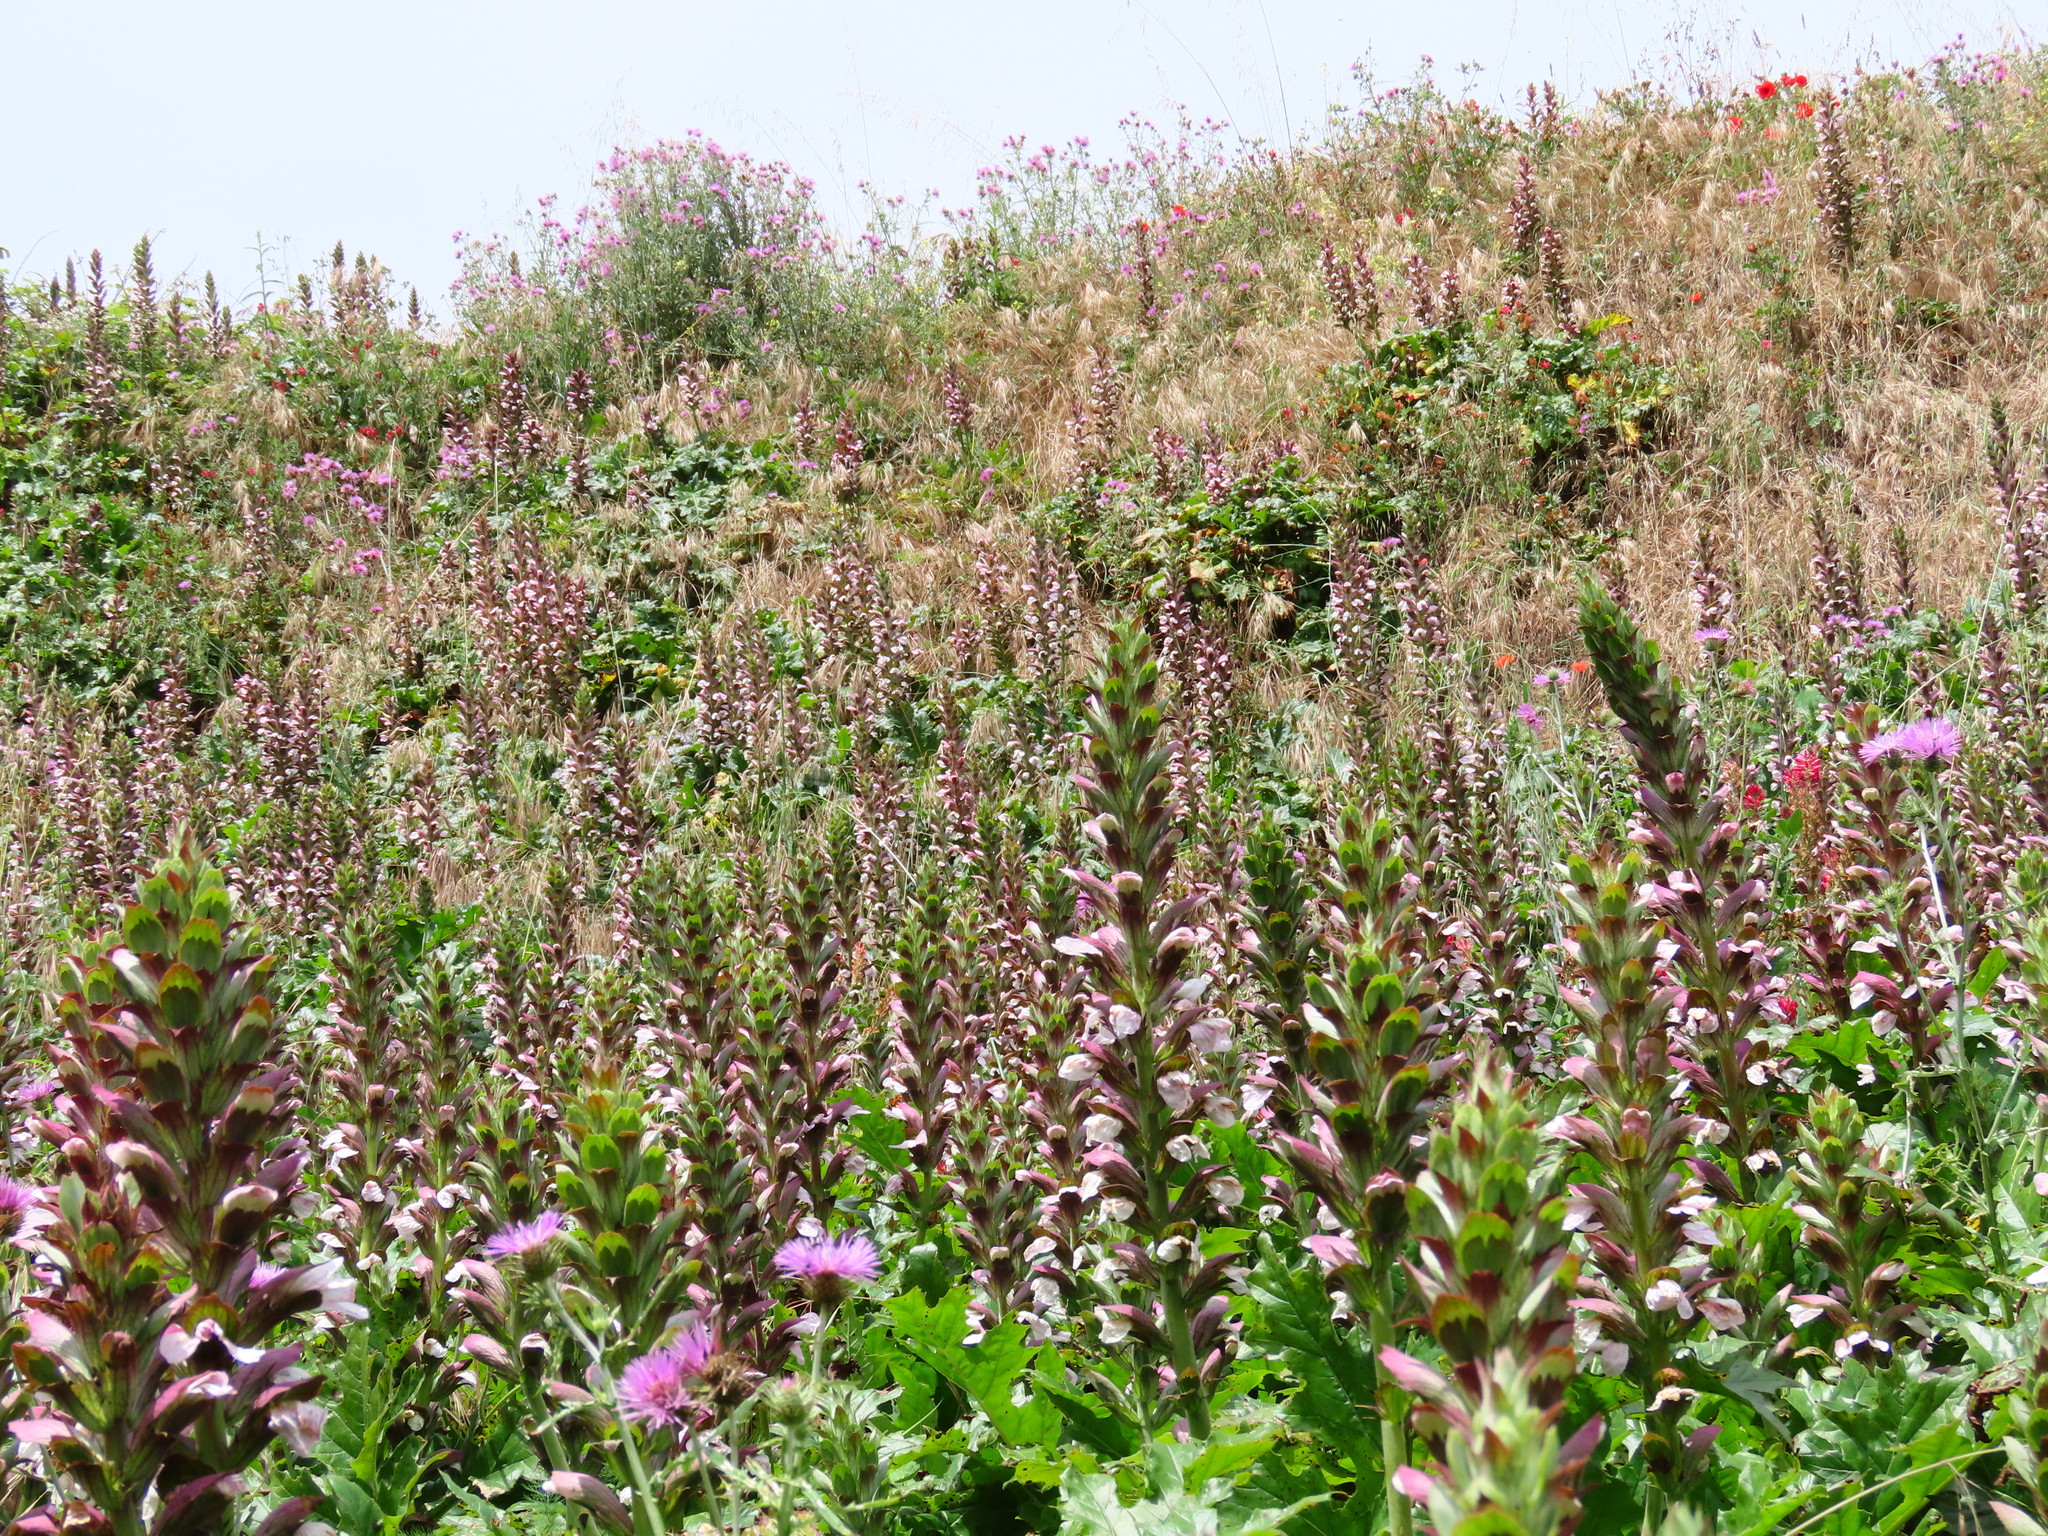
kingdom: Plantae
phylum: Tracheophyta
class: Magnoliopsida
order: Lamiales
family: Acanthaceae
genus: Acanthus
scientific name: Acanthus mollis
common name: Bear's-breech
